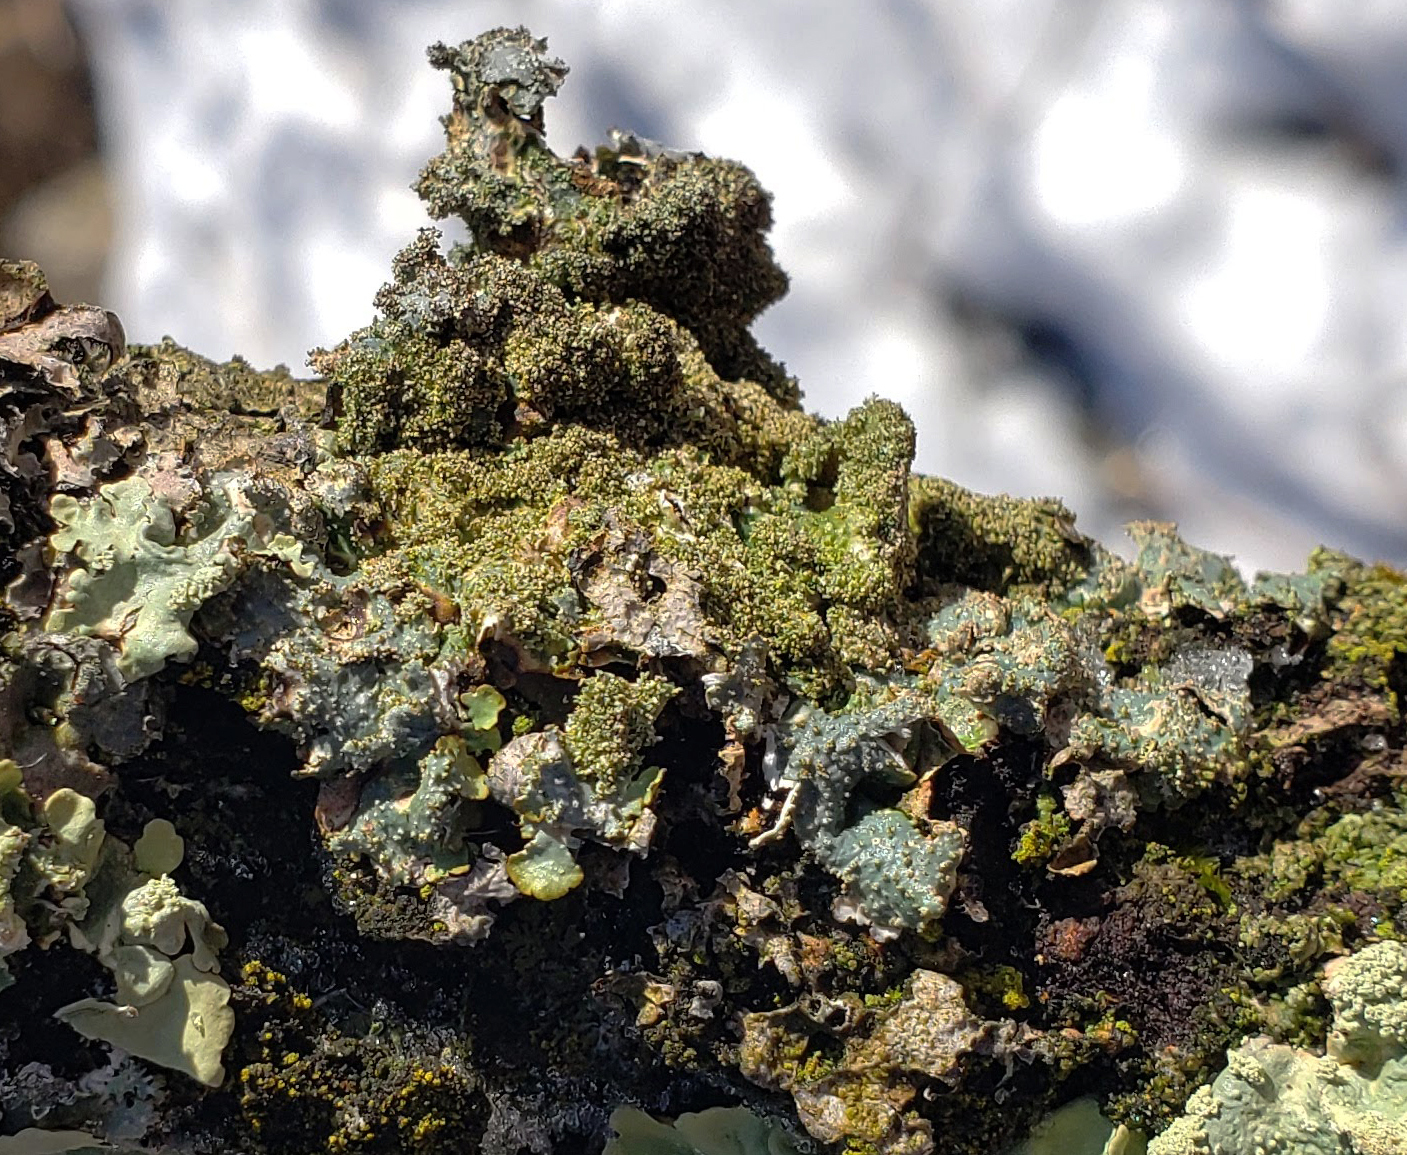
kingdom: Fungi
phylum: Ascomycota
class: Lecanoromycetes
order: Lecanorales
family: Parmeliaceae
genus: Punctelia
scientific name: Punctelia rudecta
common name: Rough speckled shield lichen
